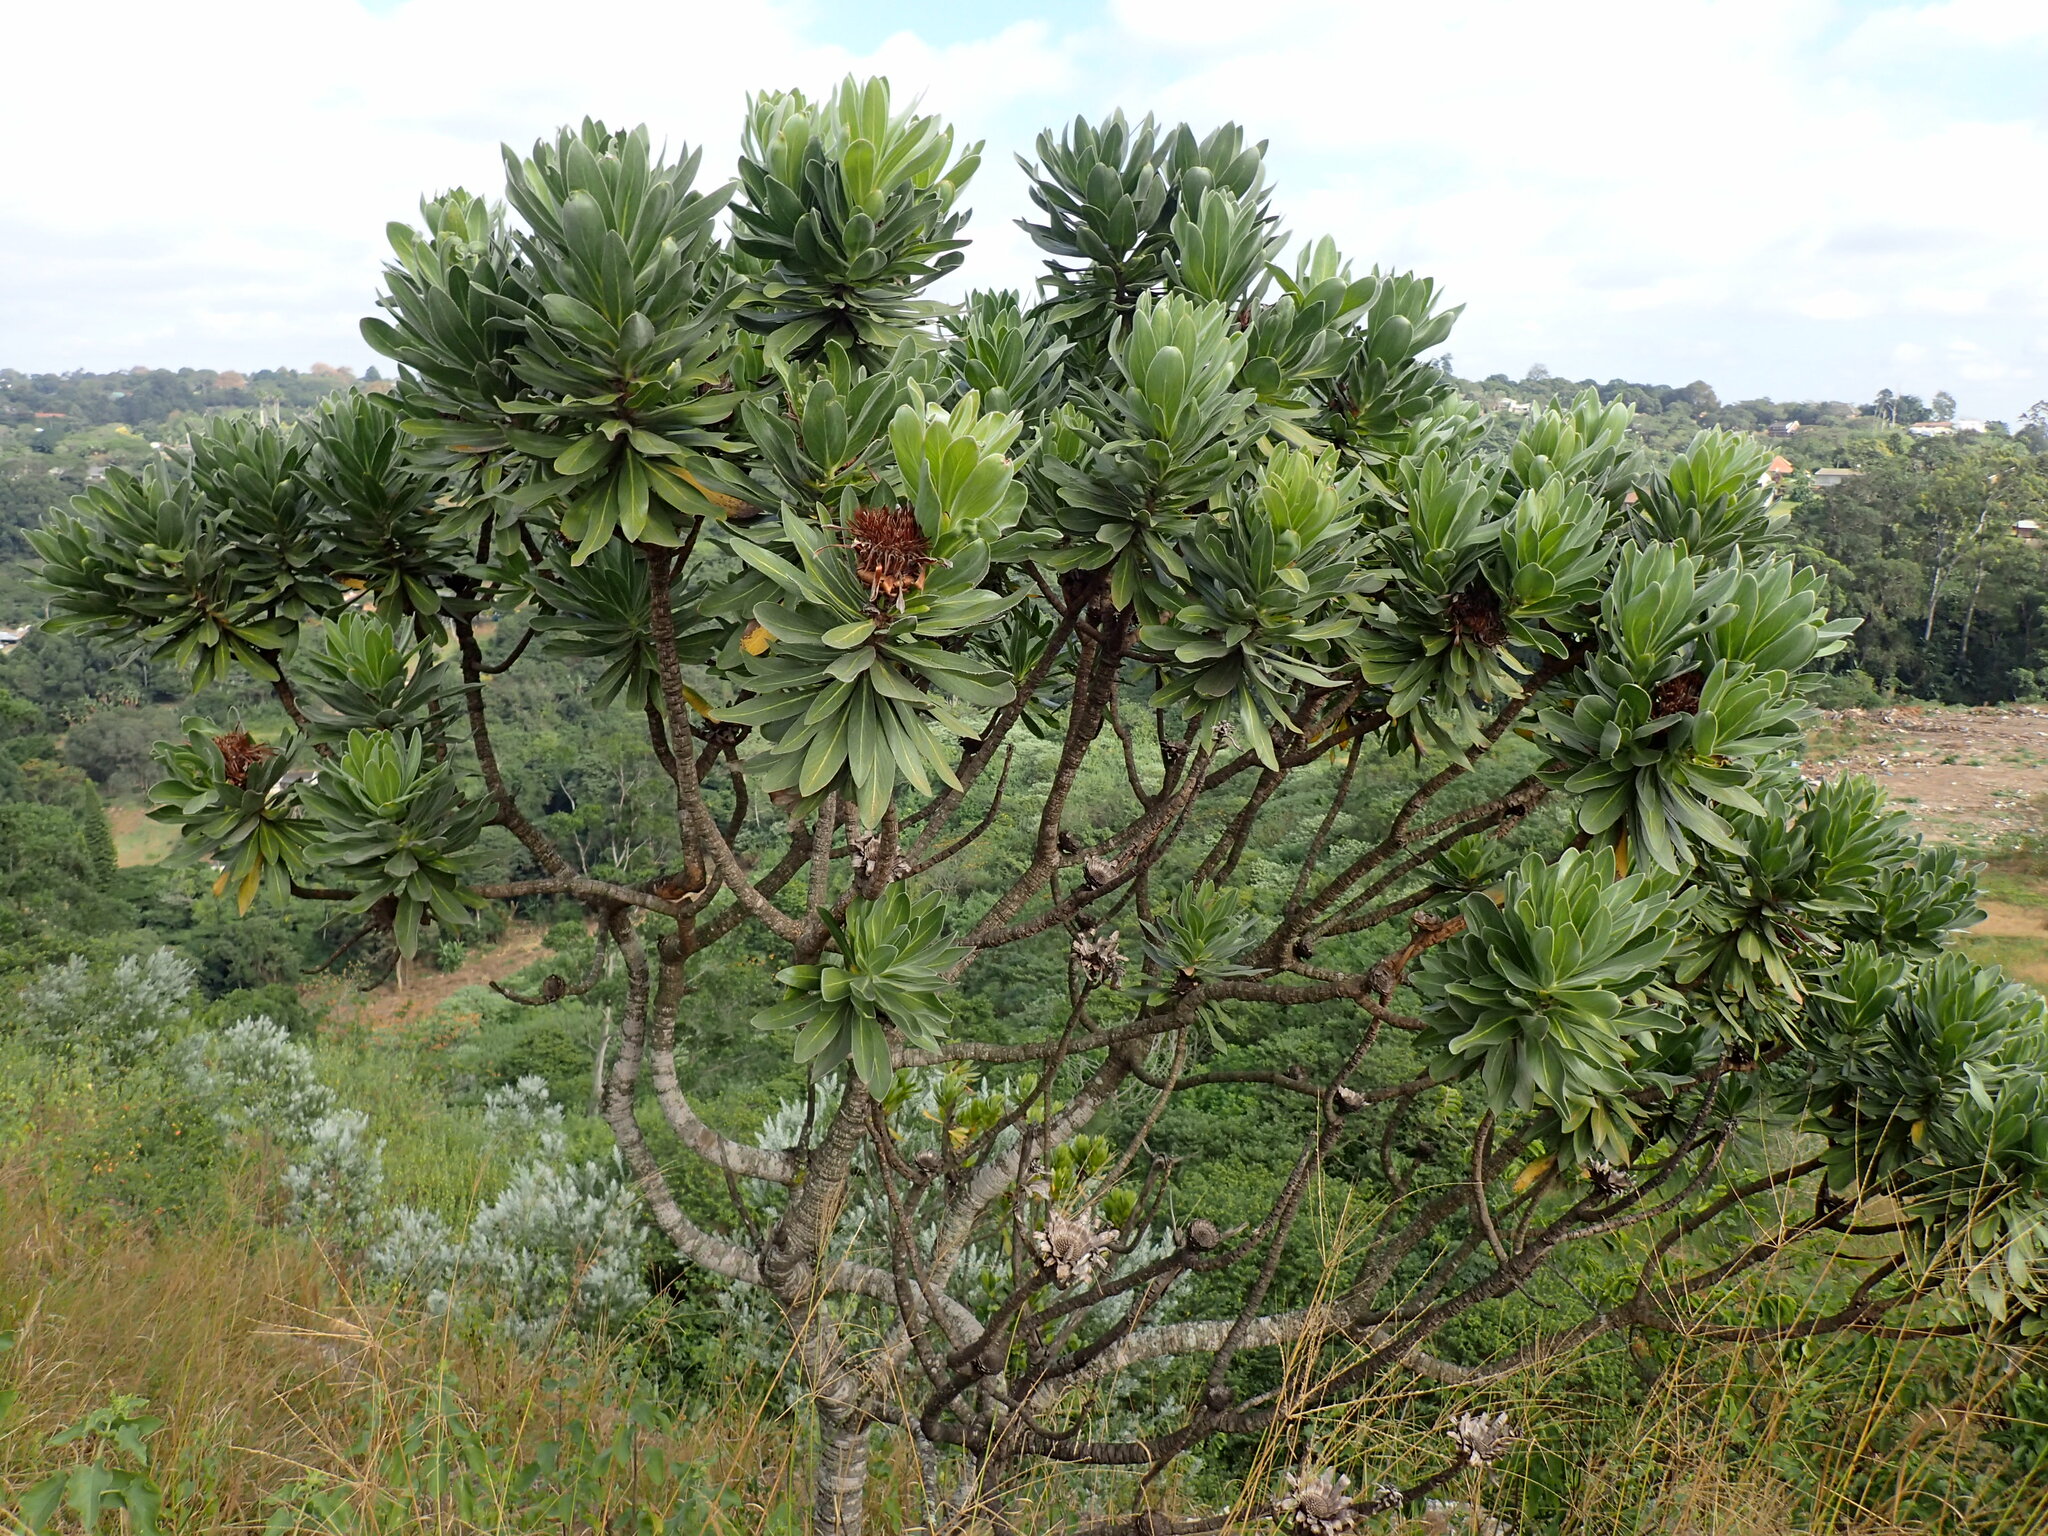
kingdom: Plantae
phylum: Tracheophyta
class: Magnoliopsida
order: Proteales
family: Proteaceae
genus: Protea
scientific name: Protea roupelliae
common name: Silver sugarbush
